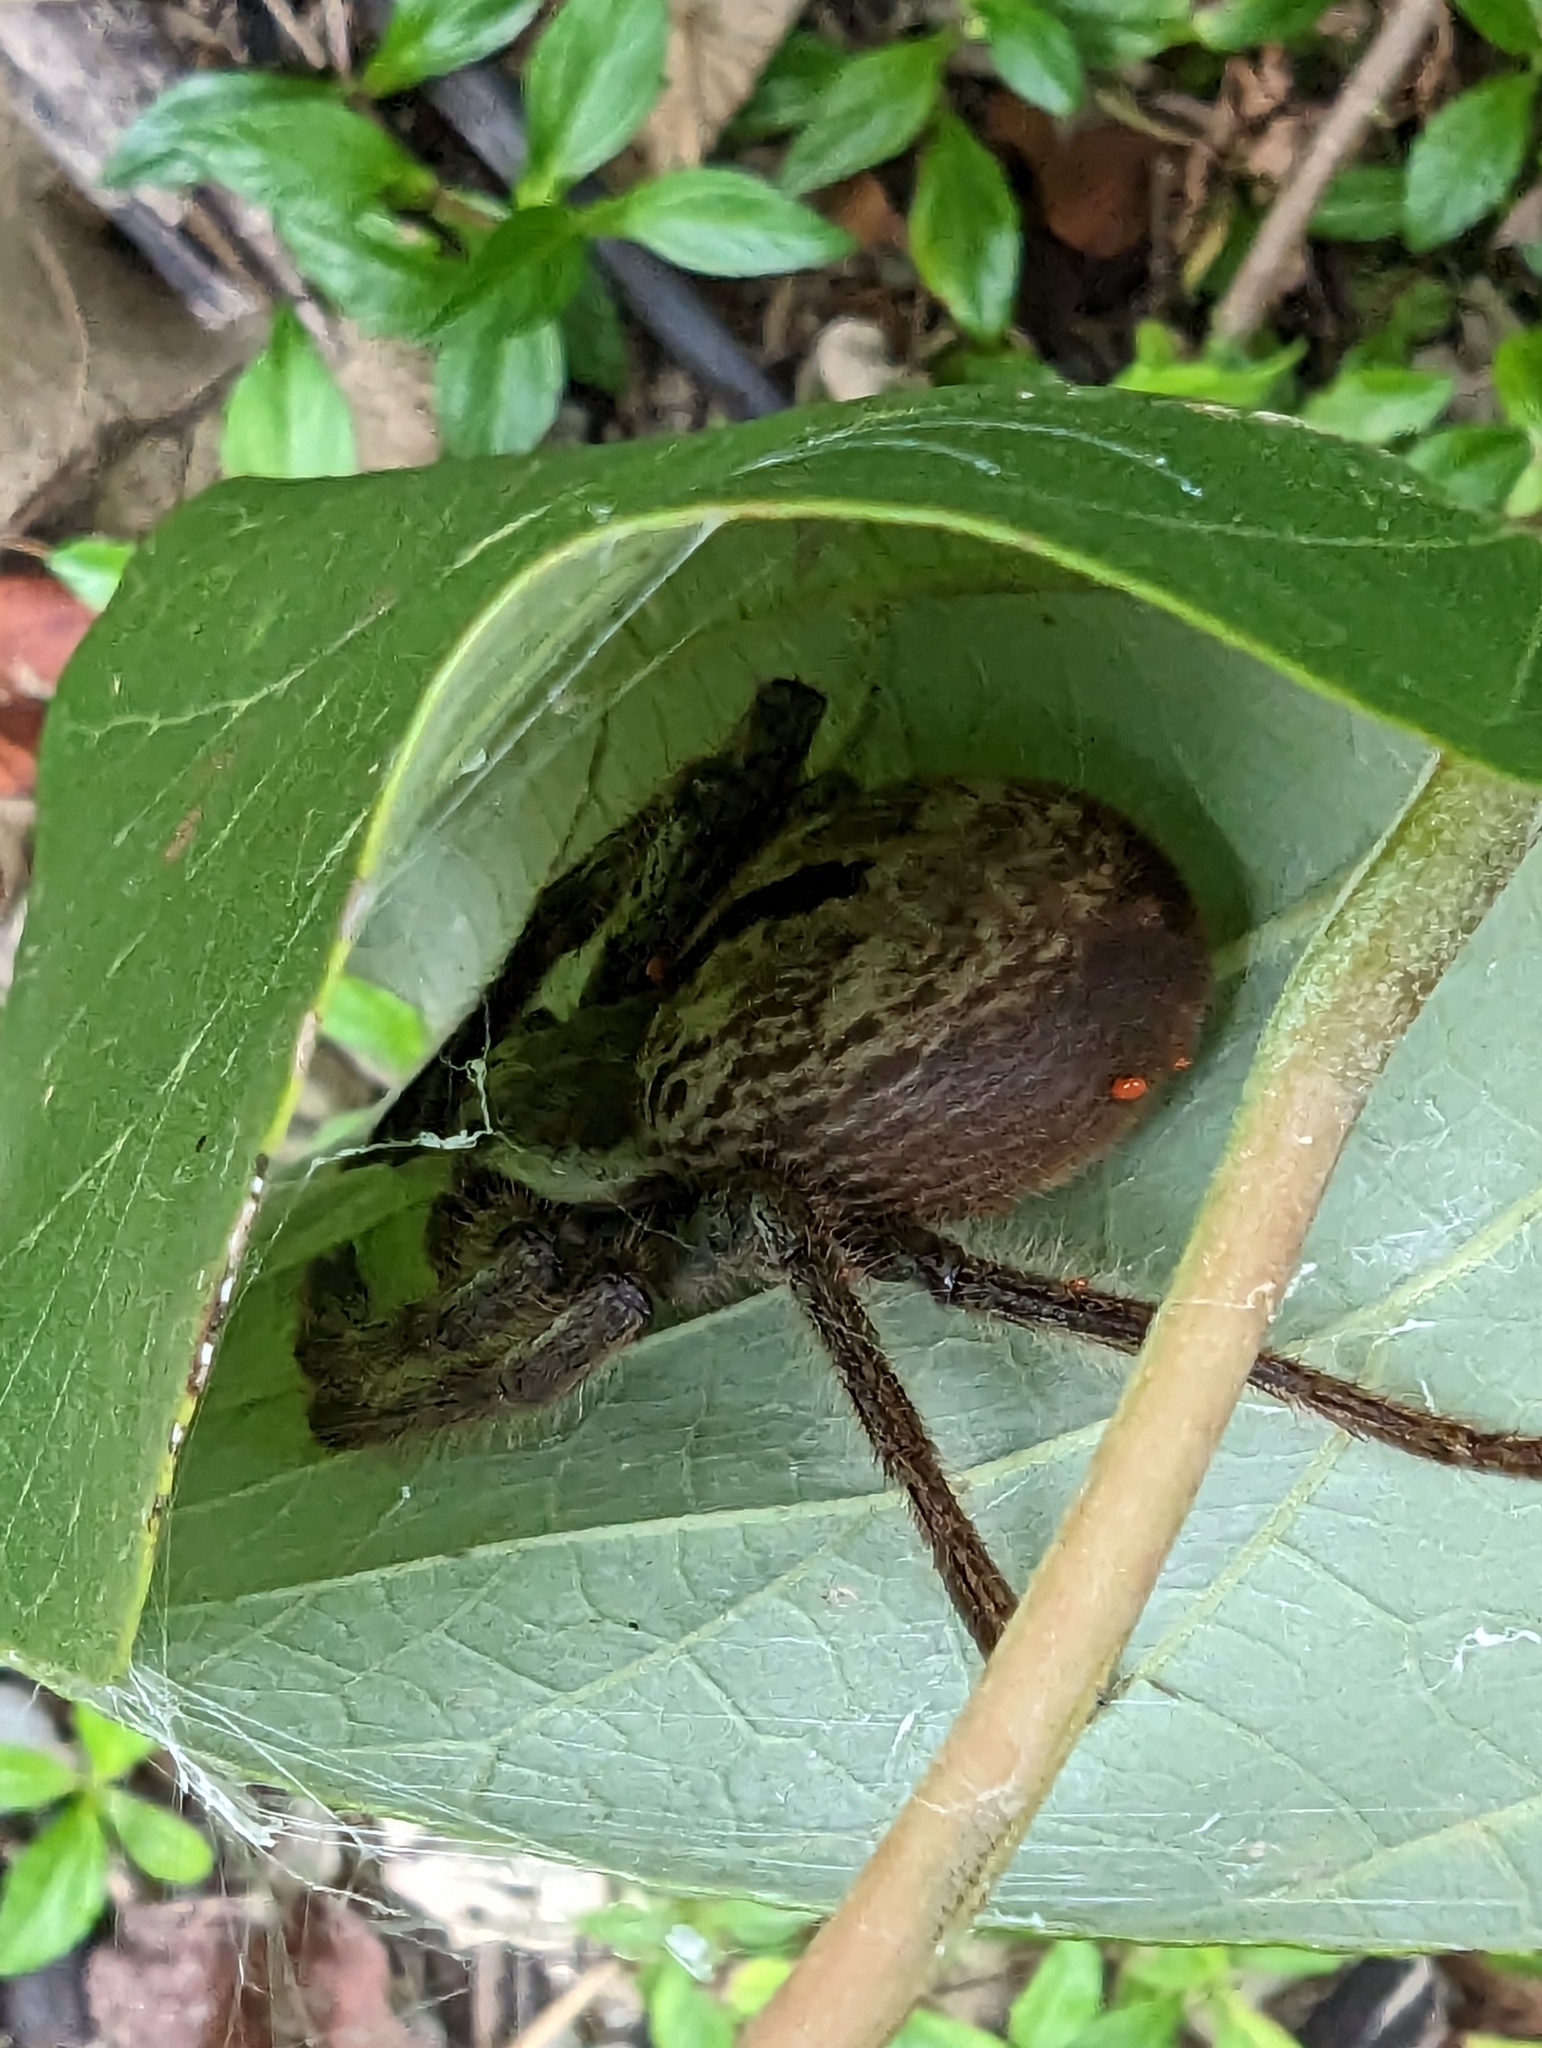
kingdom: Animalia
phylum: Arthropoda
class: Arachnida
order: Araneae
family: Sparassidae
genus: Holconia
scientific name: Holconia immanis
